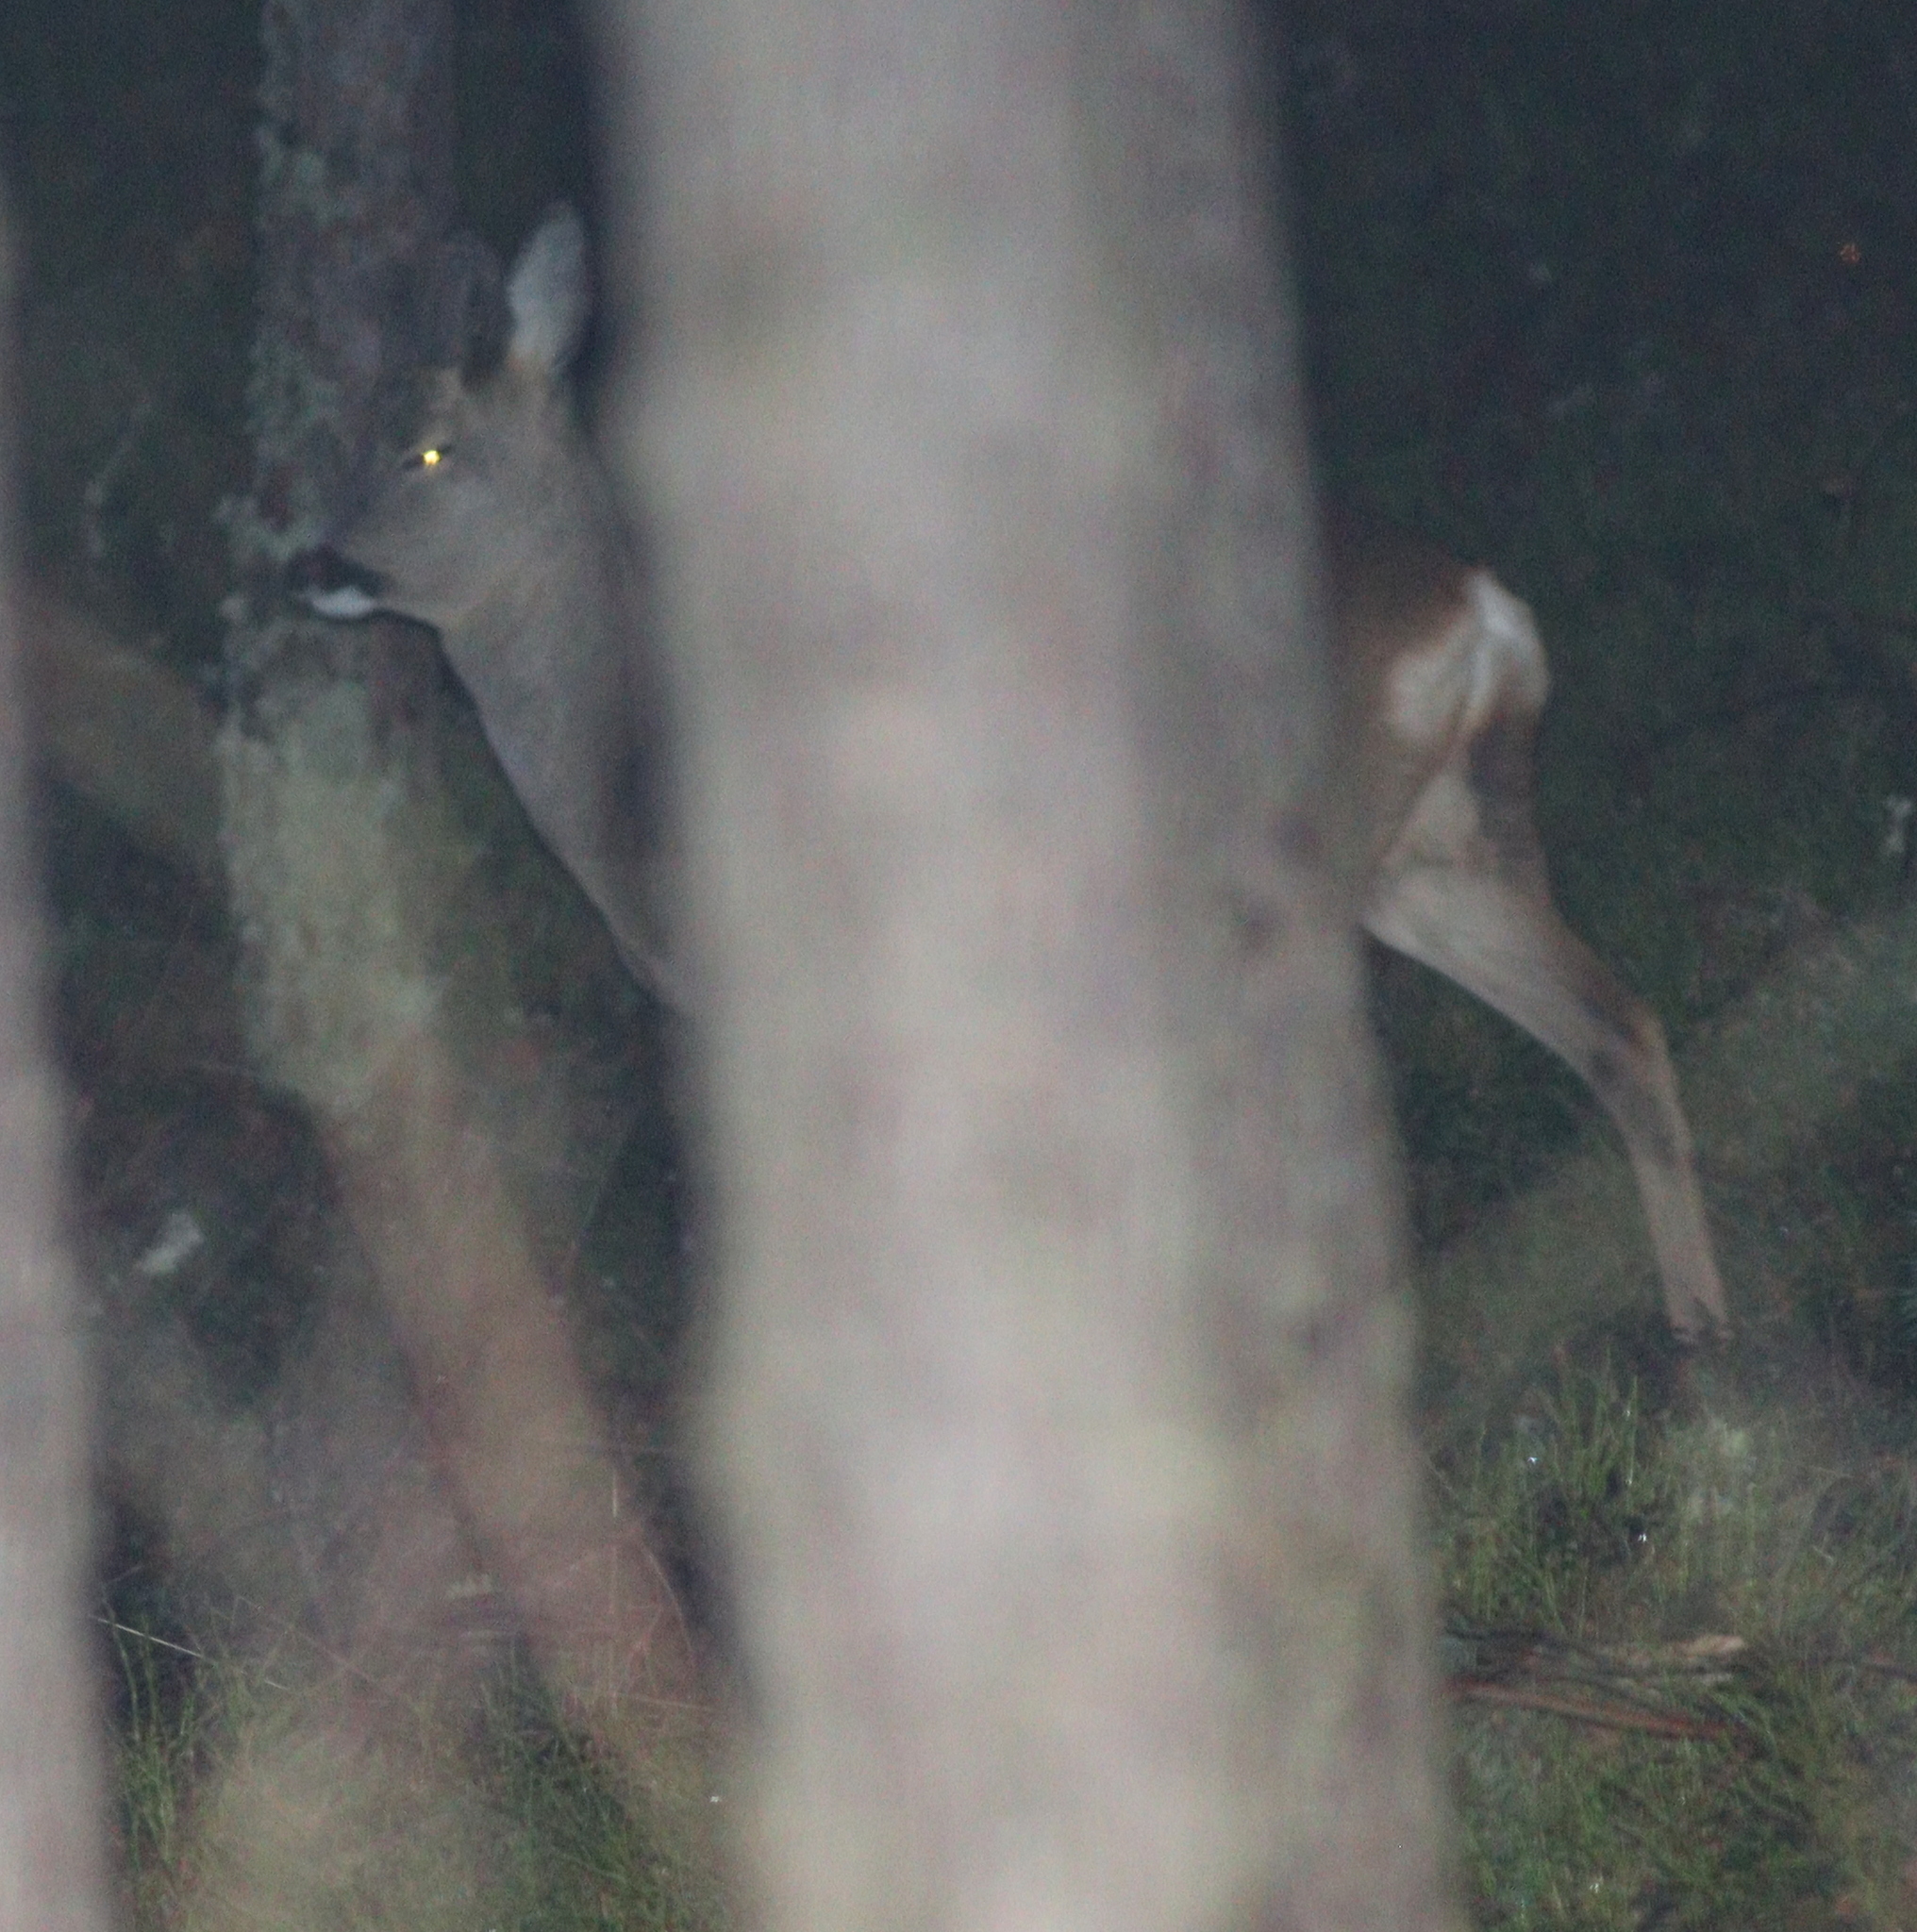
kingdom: Animalia
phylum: Chordata
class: Mammalia
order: Artiodactyla
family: Cervidae
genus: Capreolus
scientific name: Capreolus capreolus
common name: Western roe deer
